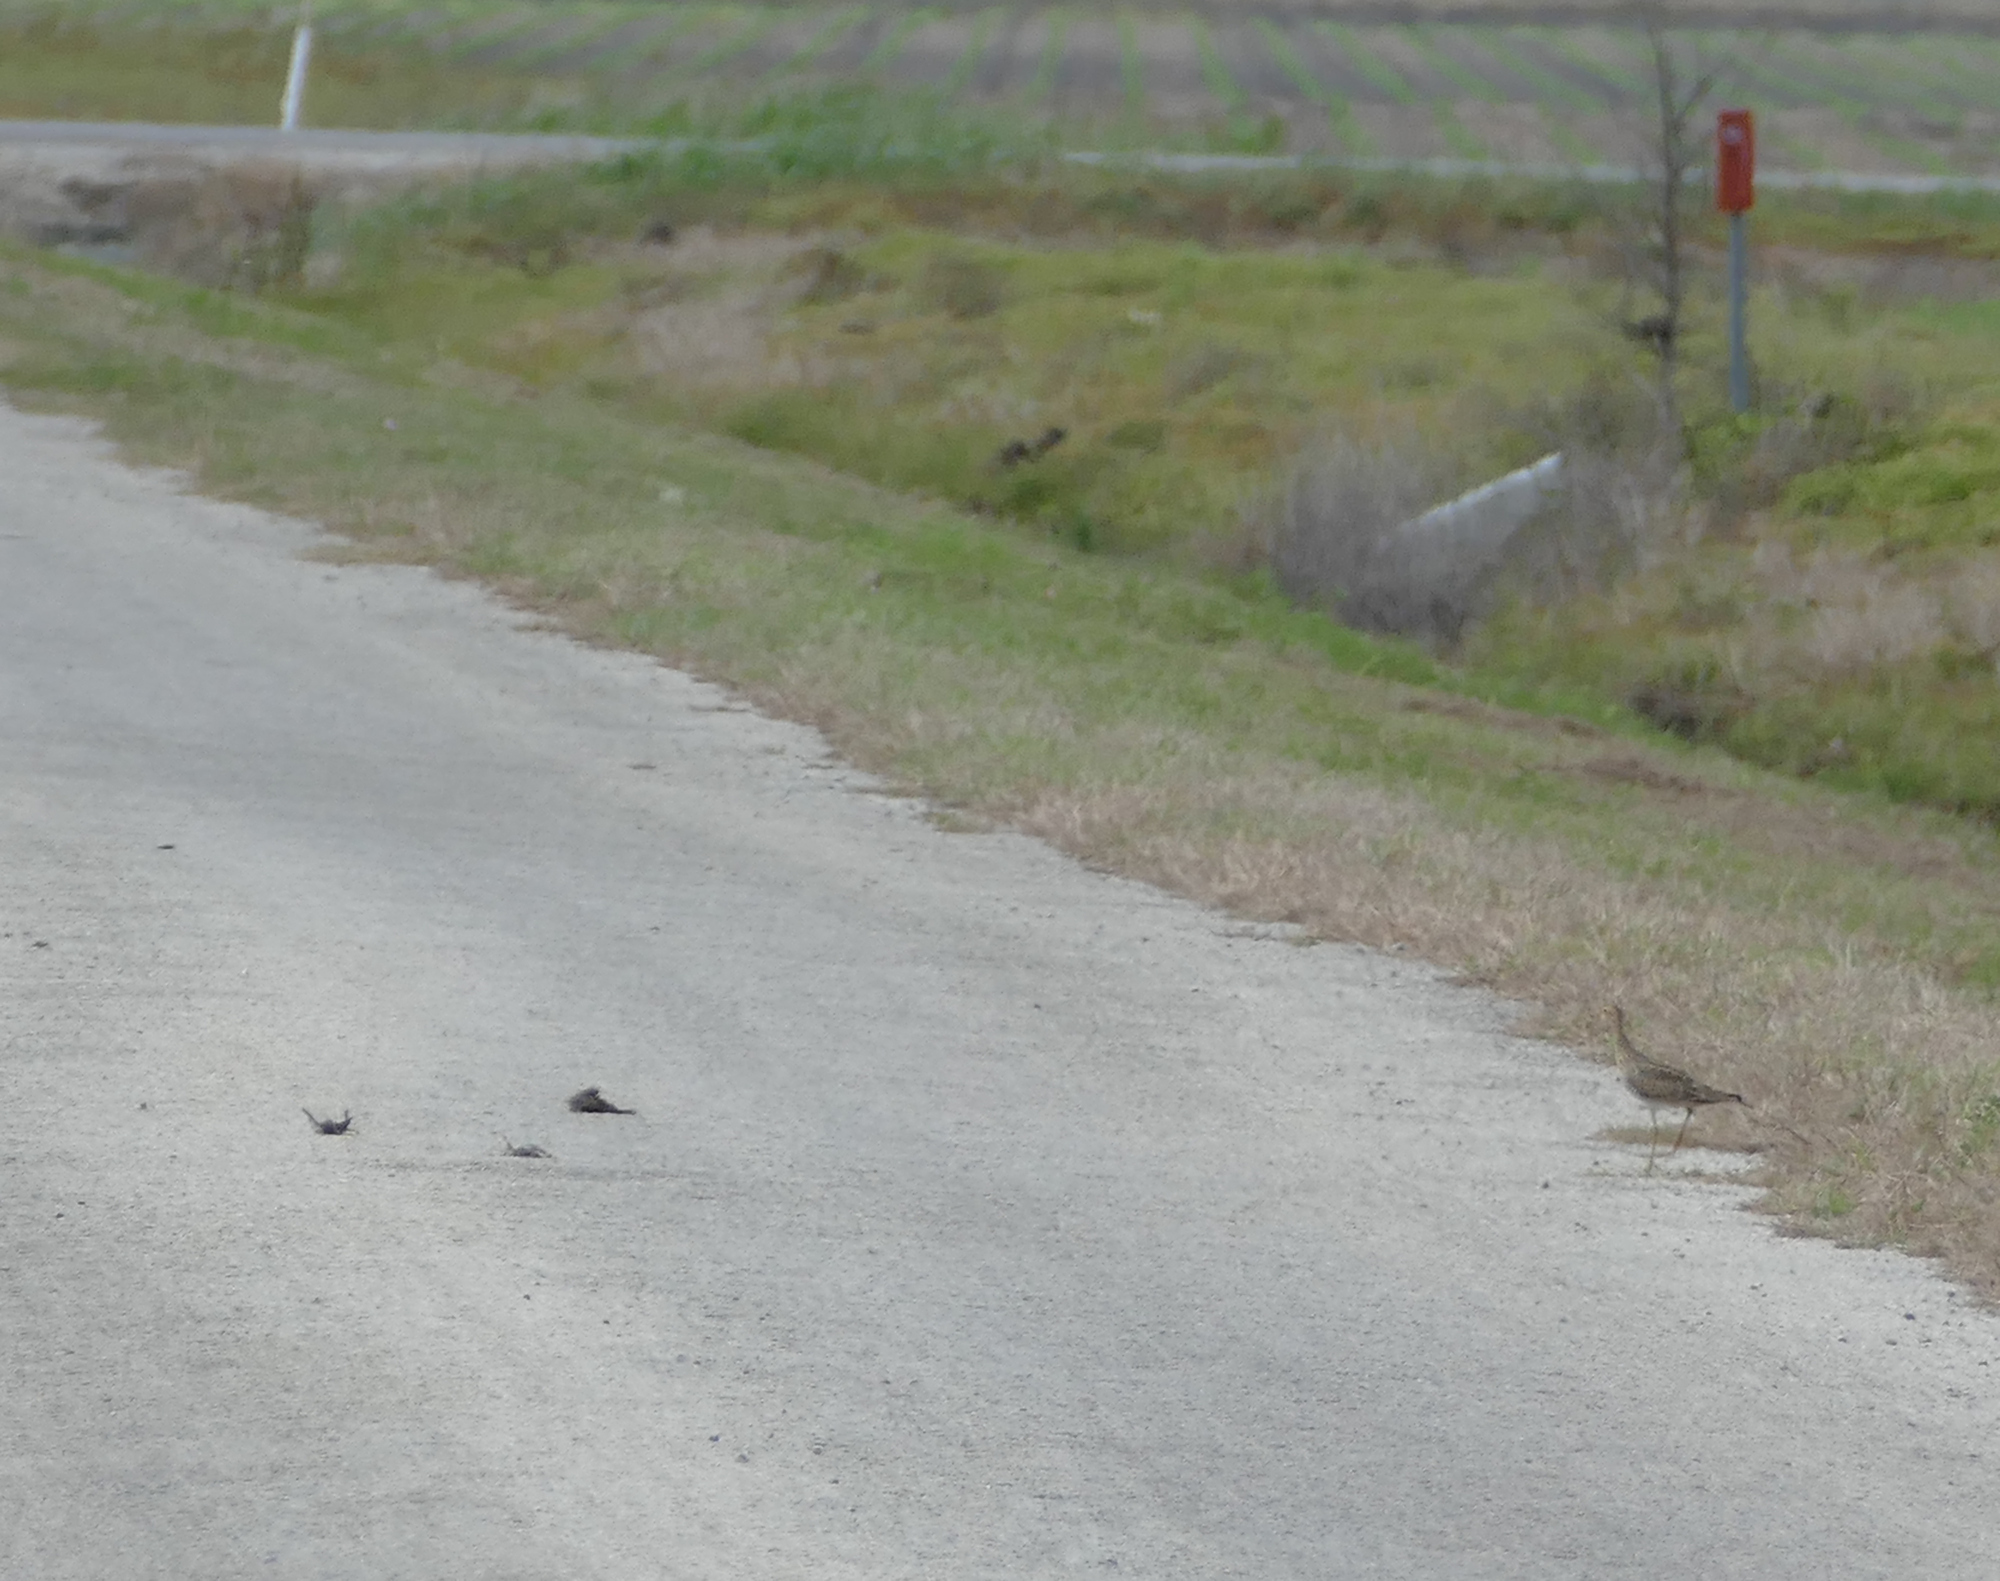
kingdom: Animalia
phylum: Chordata
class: Aves
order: Charadriiformes
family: Scolopacidae
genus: Bartramia
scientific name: Bartramia longicauda
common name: Upland sandpiper
